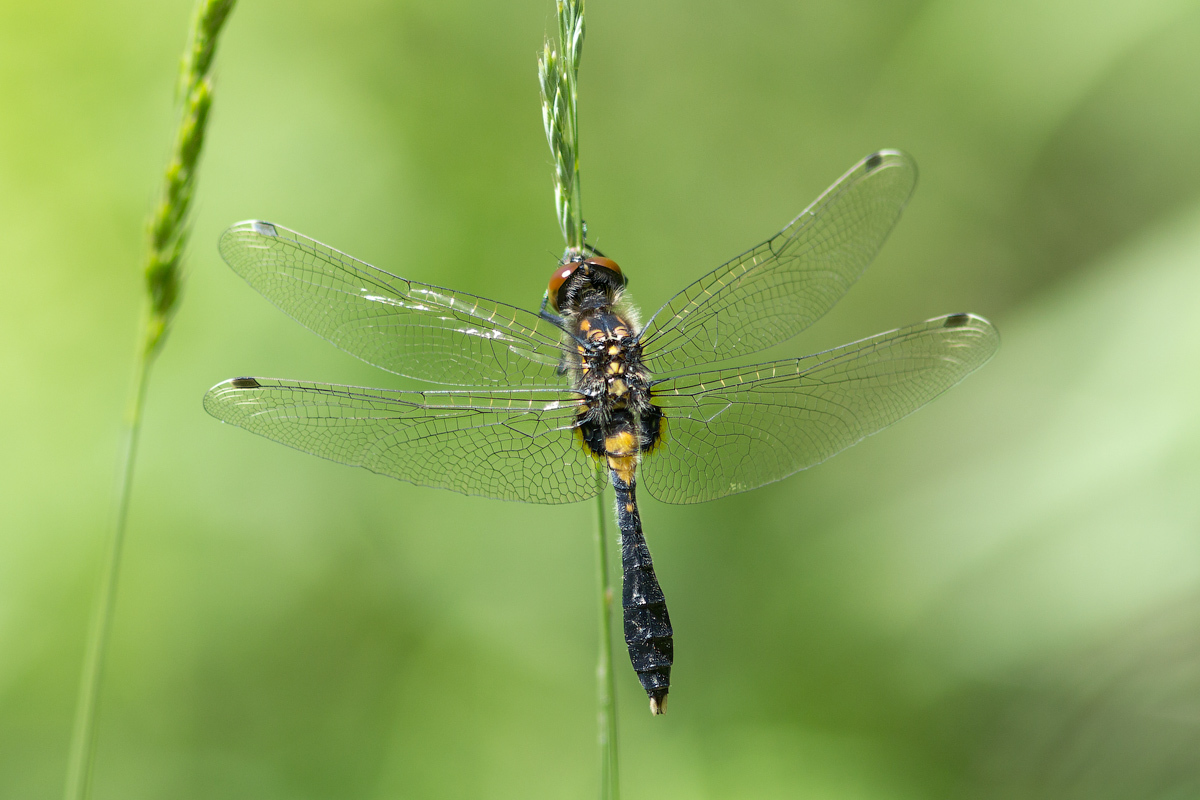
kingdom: Animalia
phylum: Arthropoda
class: Insecta
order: Odonata
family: Libellulidae
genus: Leucorrhinia
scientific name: Leucorrhinia caudalis
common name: Lilypad whiteface
